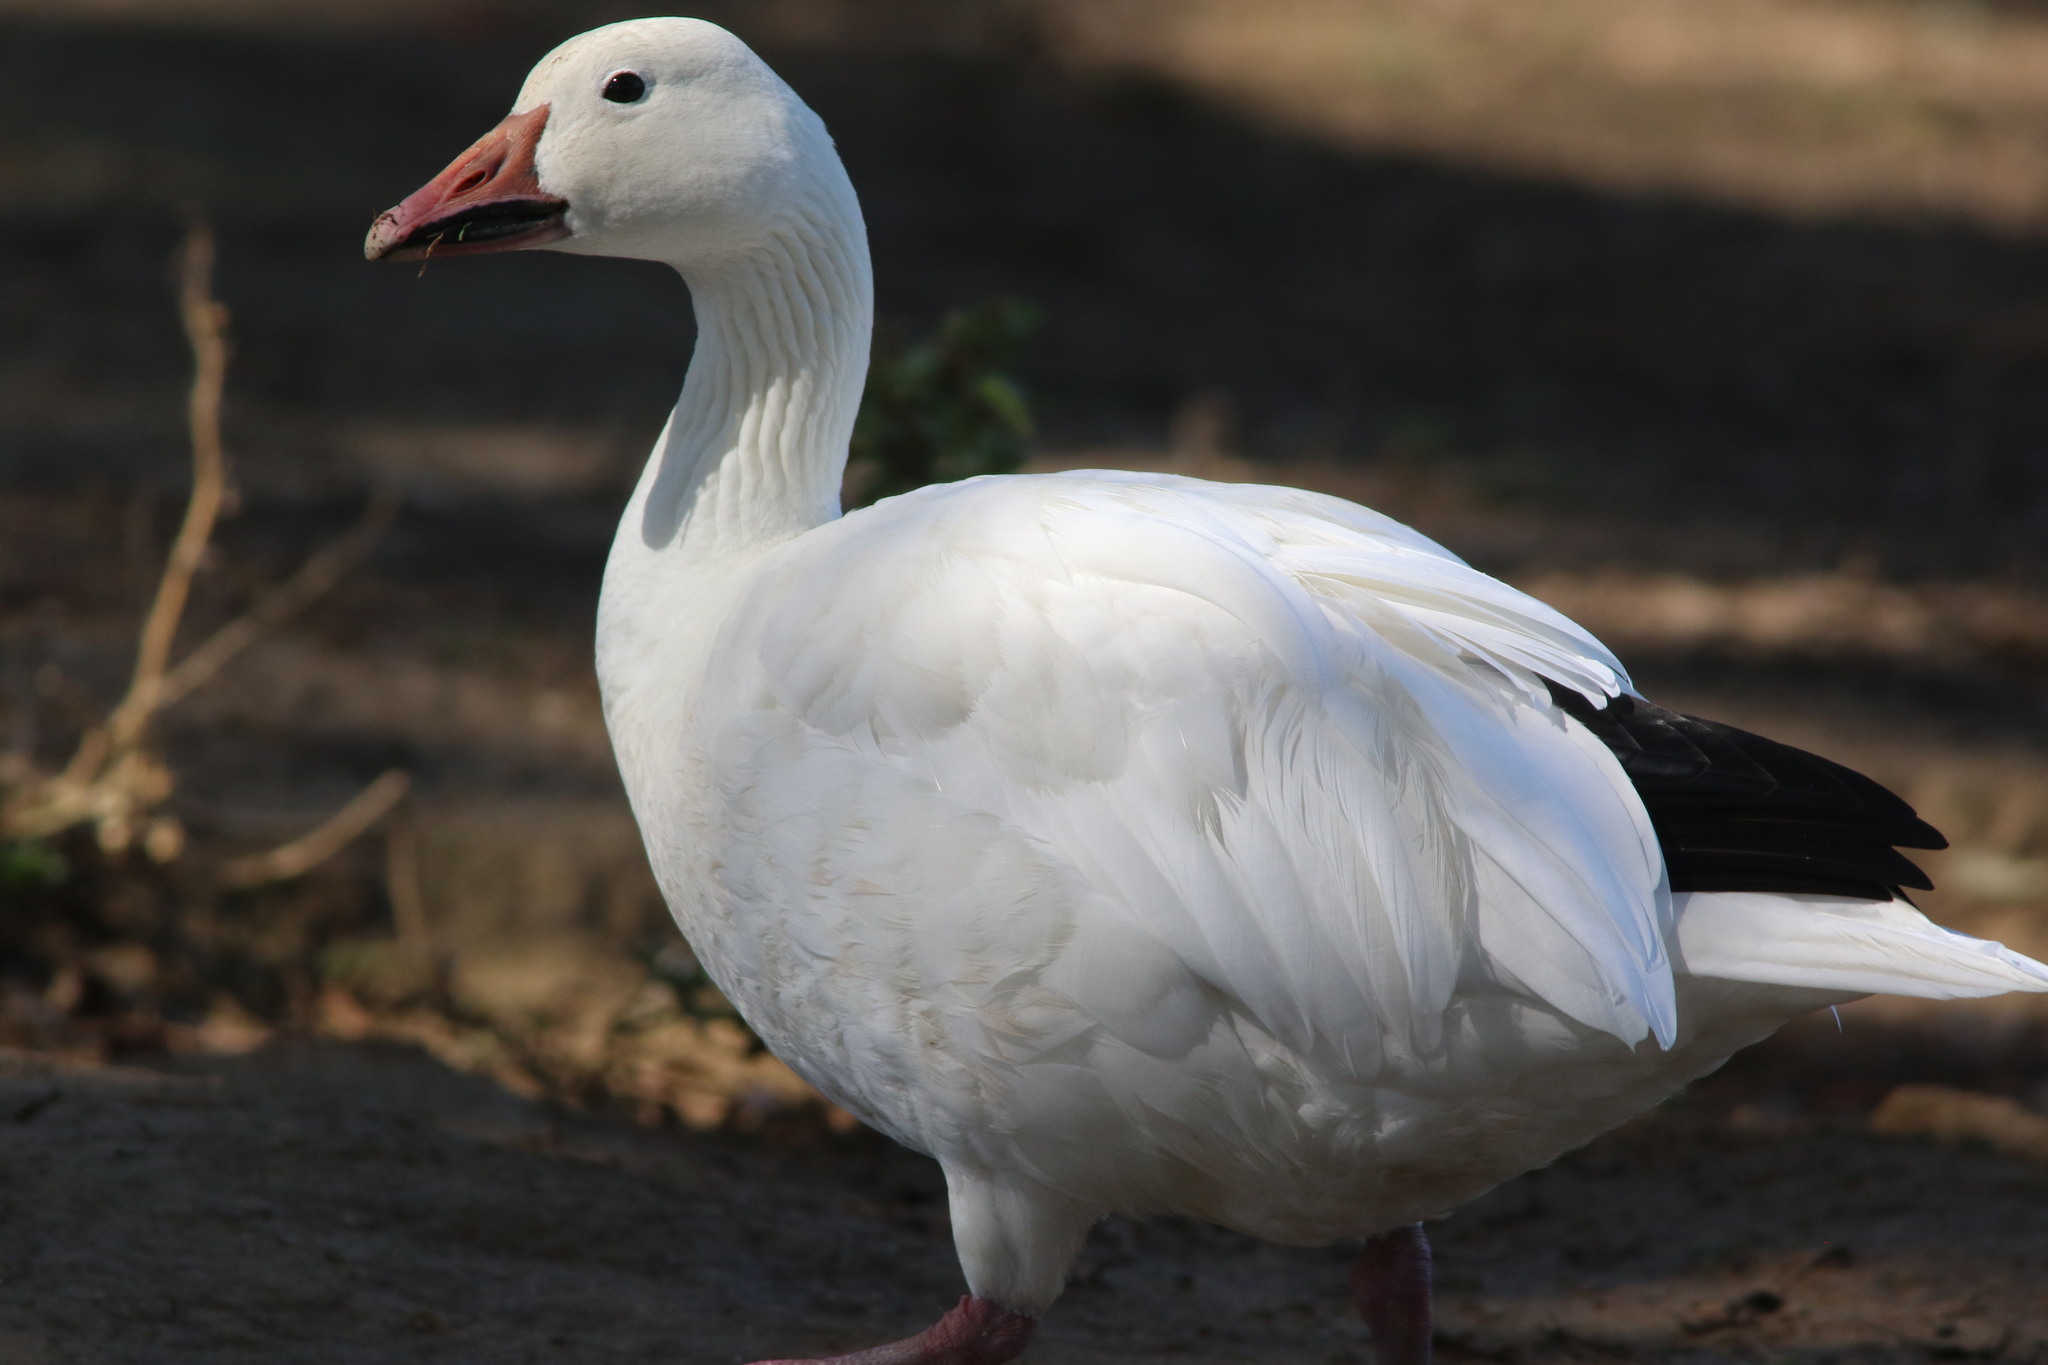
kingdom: Animalia
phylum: Chordata
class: Aves
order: Anseriformes
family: Anatidae
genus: Anser
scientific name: Anser caerulescens
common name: Snow goose
